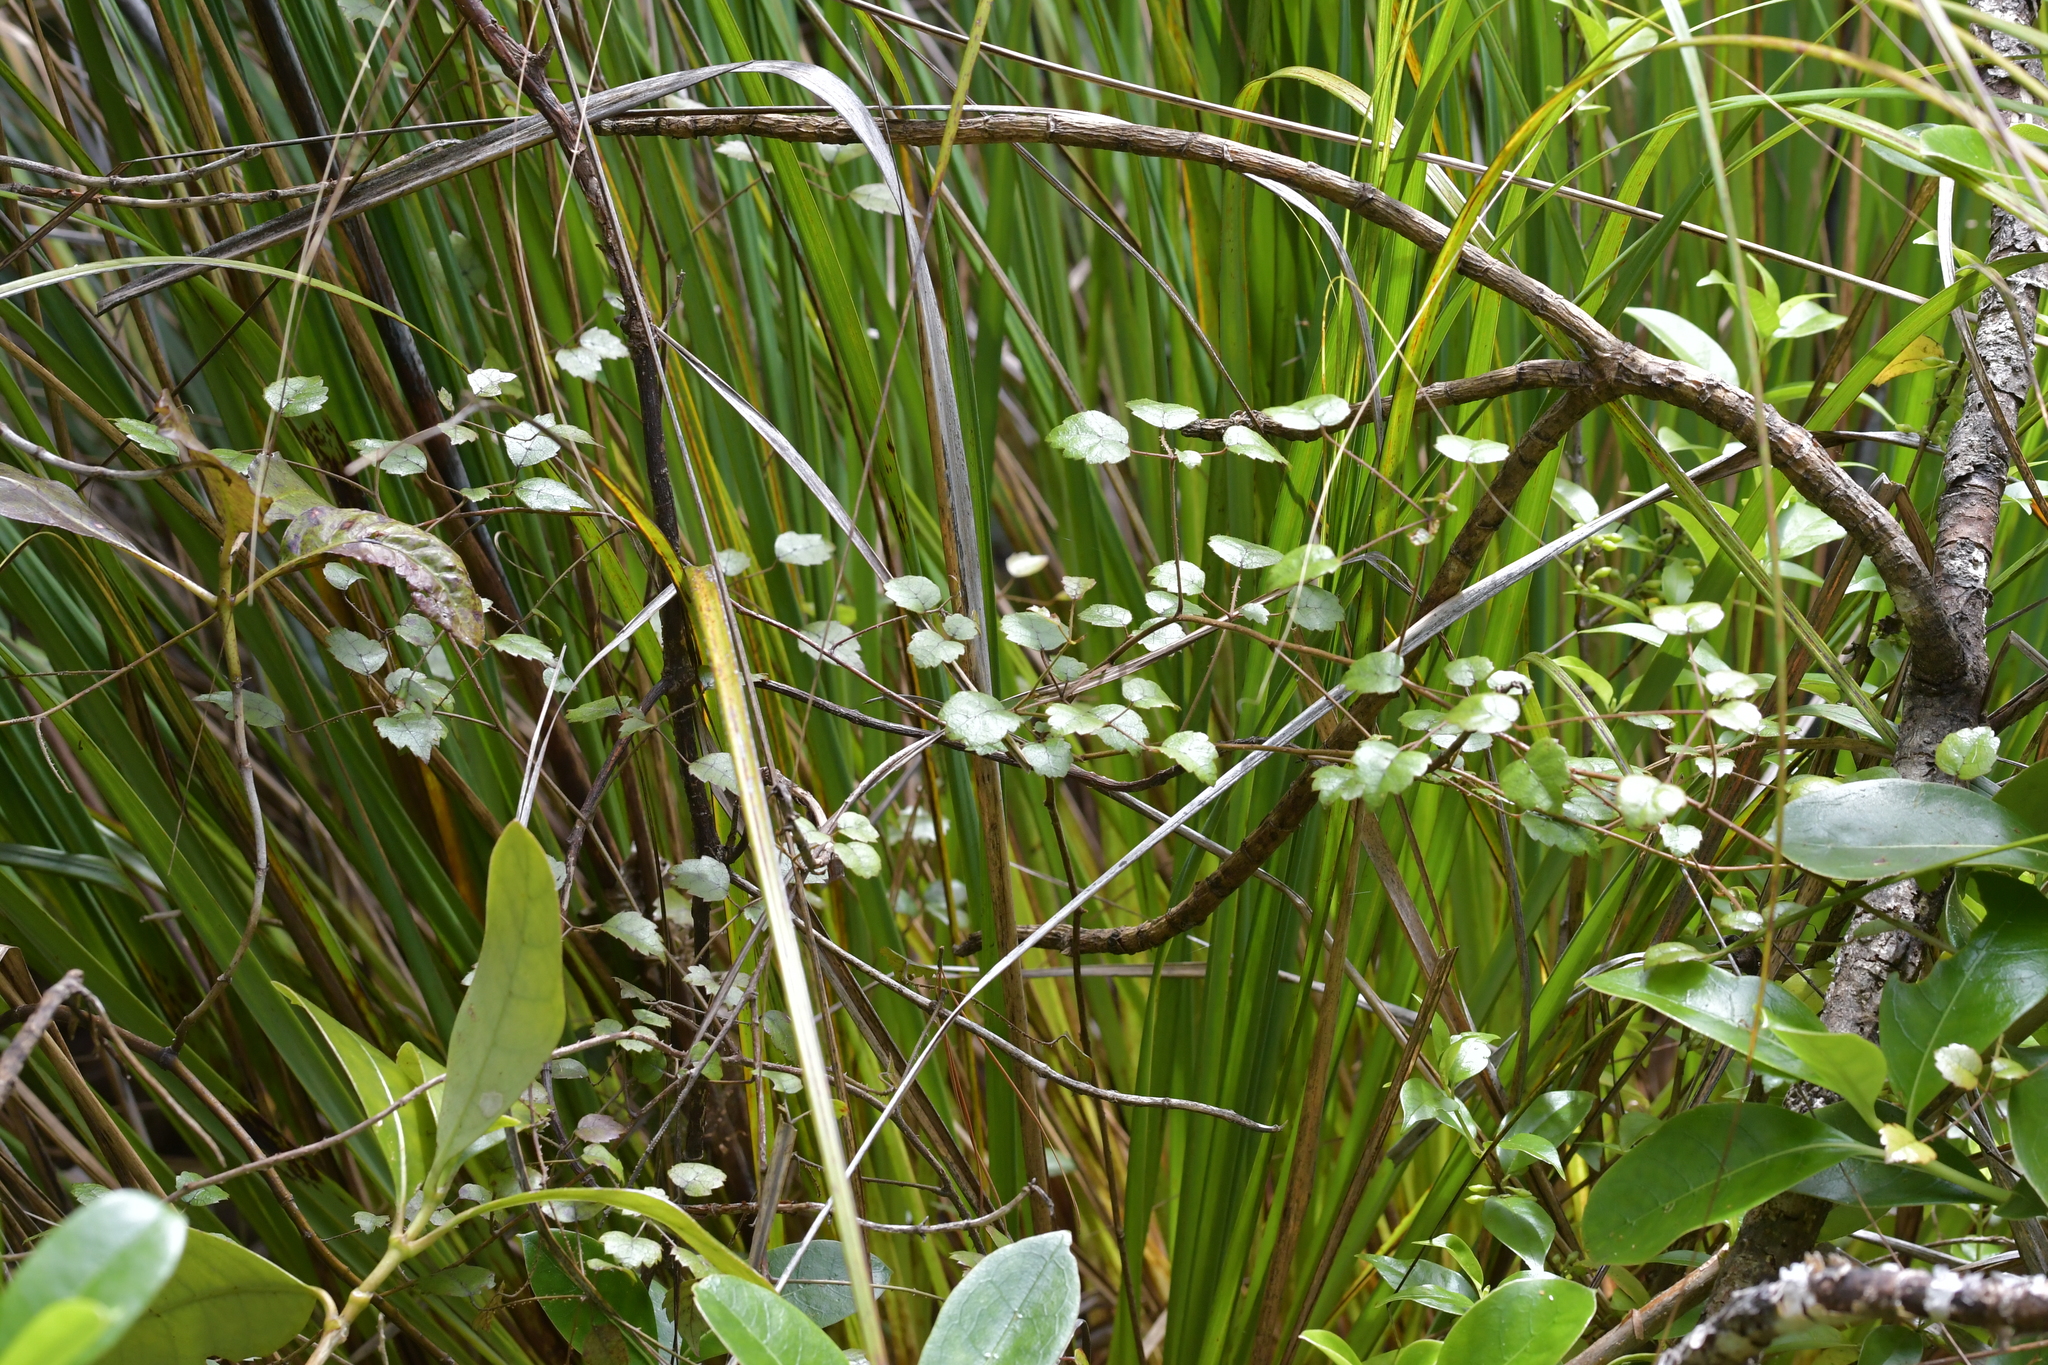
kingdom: Plantae
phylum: Tracheophyta
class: Magnoliopsida
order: Rosales
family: Rosaceae
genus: Rubus
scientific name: Rubus australis
